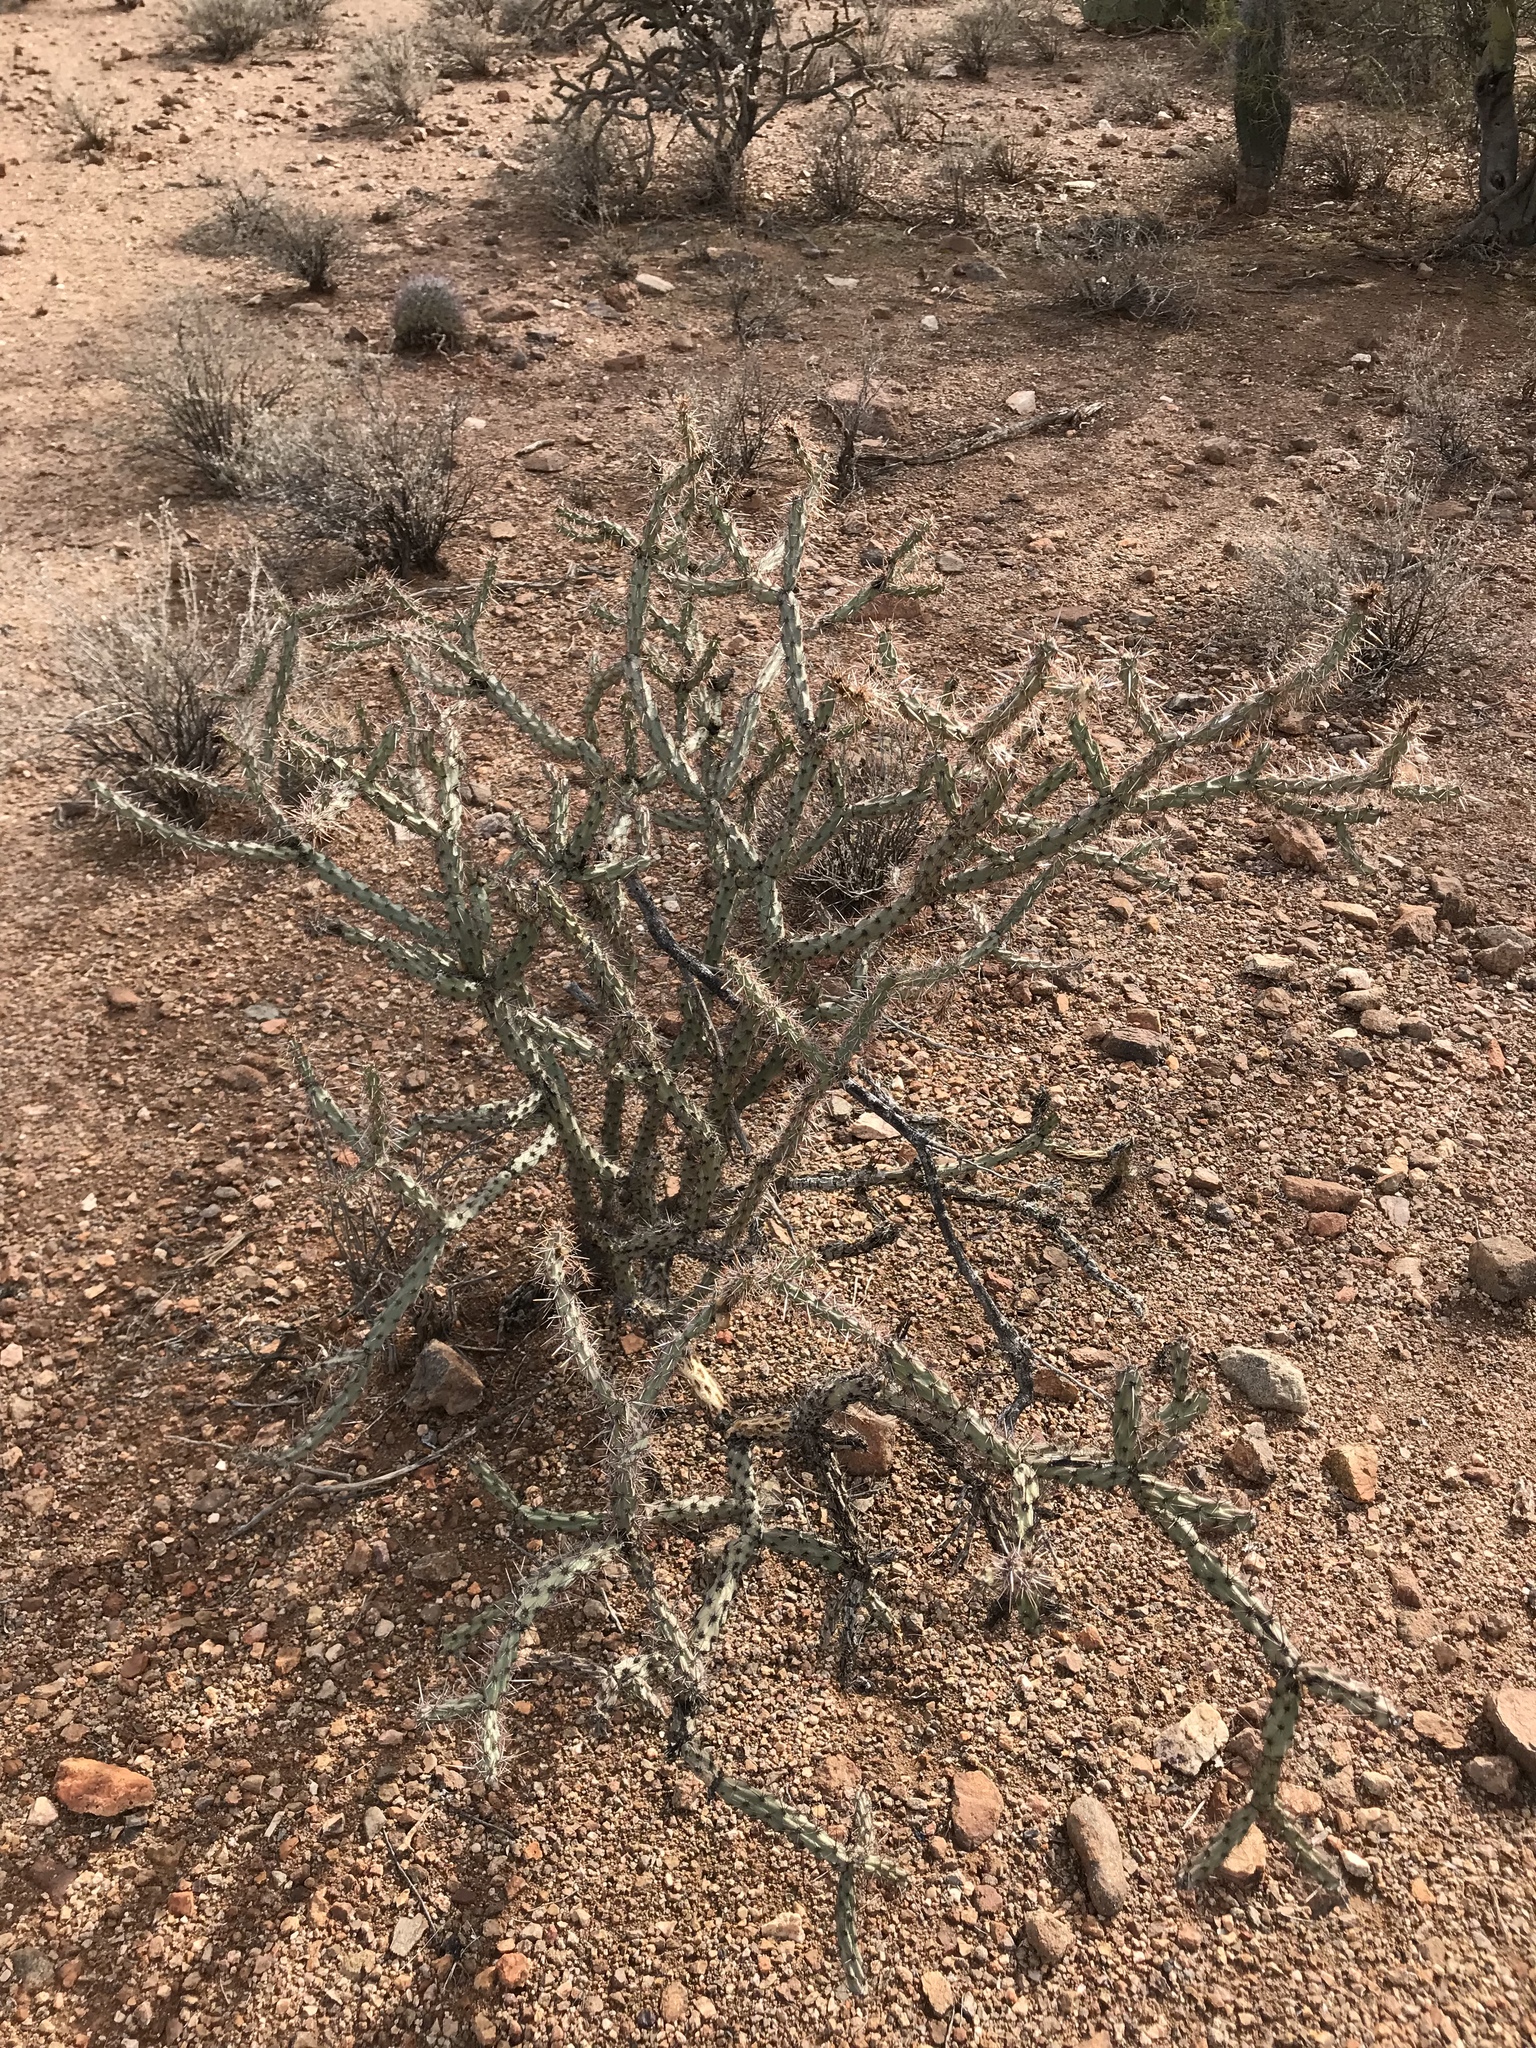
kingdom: Plantae
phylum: Tracheophyta
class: Magnoliopsida
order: Caryophyllales
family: Cactaceae
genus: Cylindropuntia
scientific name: Cylindropuntia thurberi
